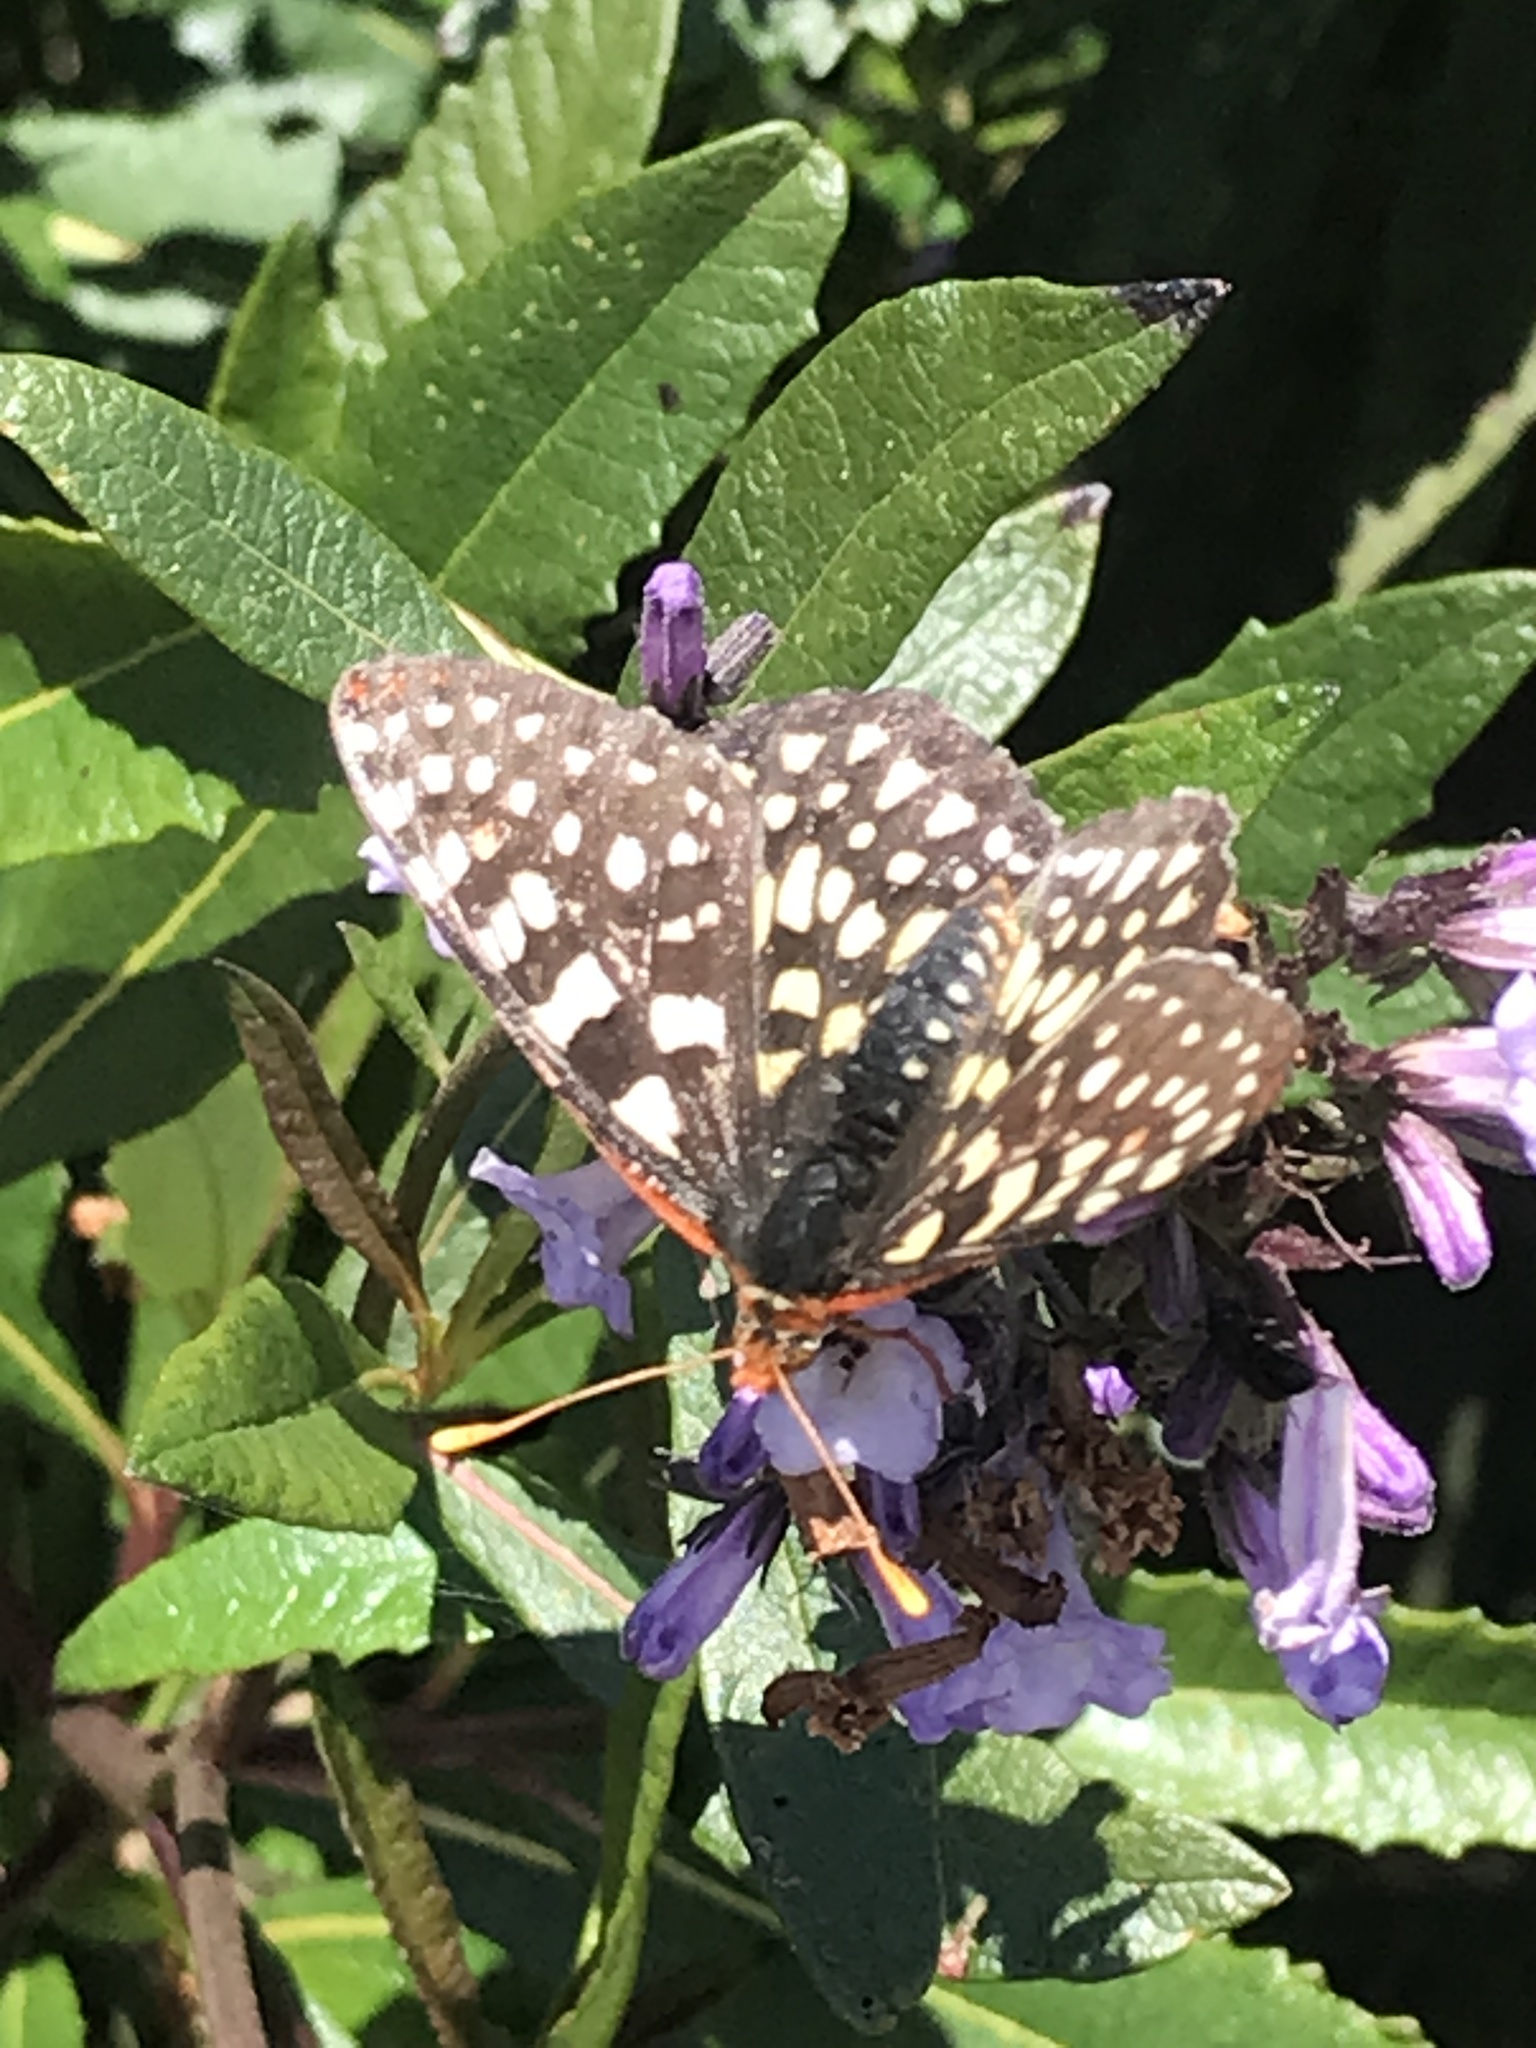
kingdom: Animalia
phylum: Arthropoda
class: Insecta
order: Lepidoptera
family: Nymphalidae
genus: Occidryas
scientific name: Occidryas chalcedona
